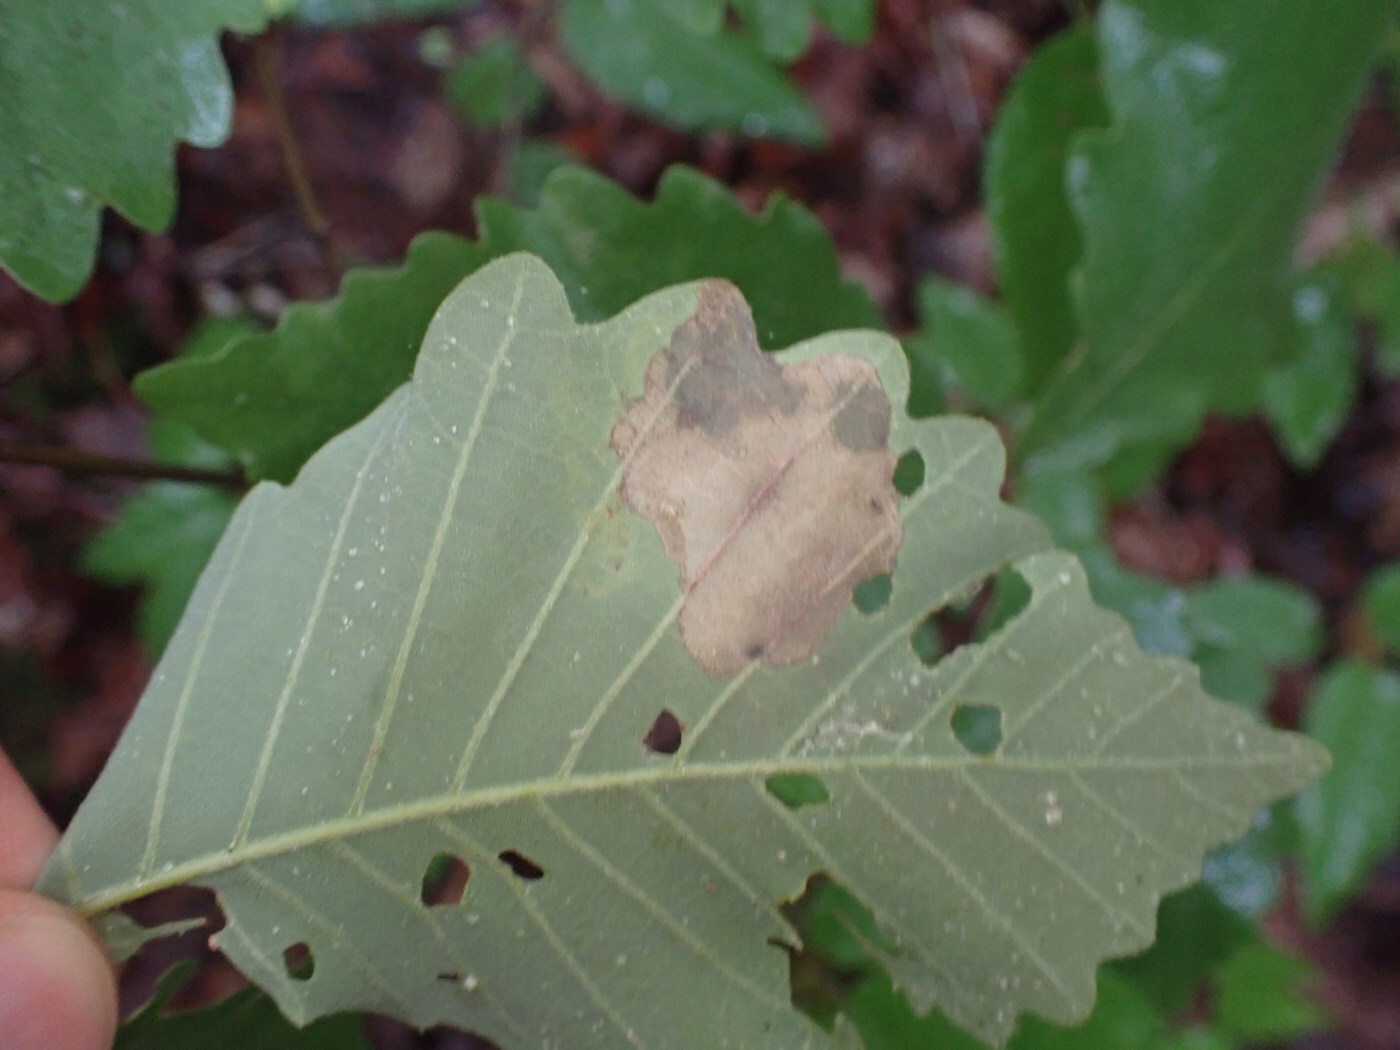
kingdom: Animalia
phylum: Arthropoda
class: Insecta
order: Lepidoptera
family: Gracillariidae
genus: Cryptolectica
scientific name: Cryptolectica
